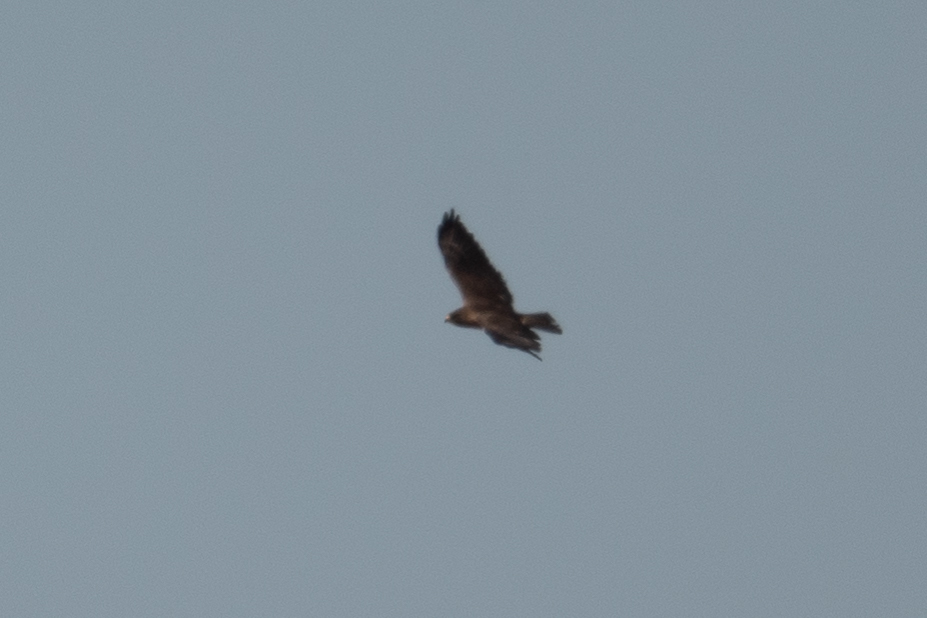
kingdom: Animalia
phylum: Chordata
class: Aves
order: Accipitriformes
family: Accipitridae
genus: Buteo
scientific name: Buteo swainsoni
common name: Swainson's hawk
